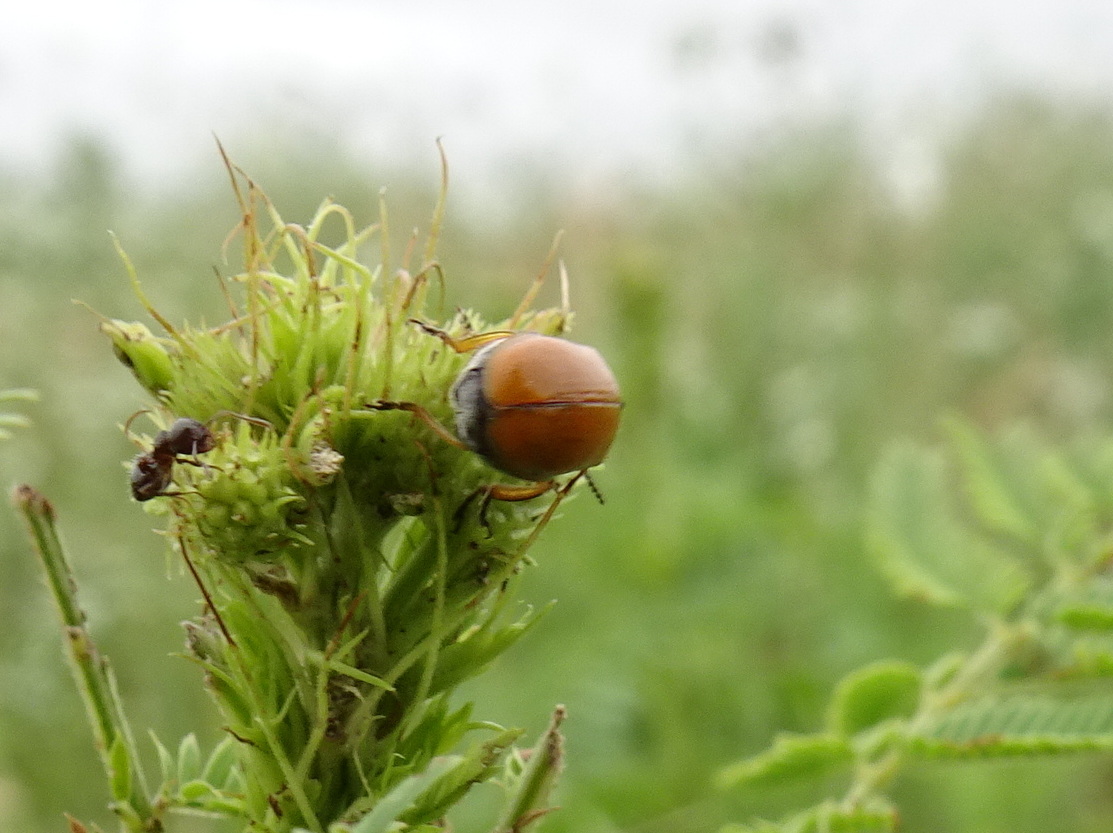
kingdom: Animalia
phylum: Arthropoda
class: Insecta
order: Coleoptera
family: Chrysomelidae
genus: Anomoea
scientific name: Anomoea flavokansiensis
